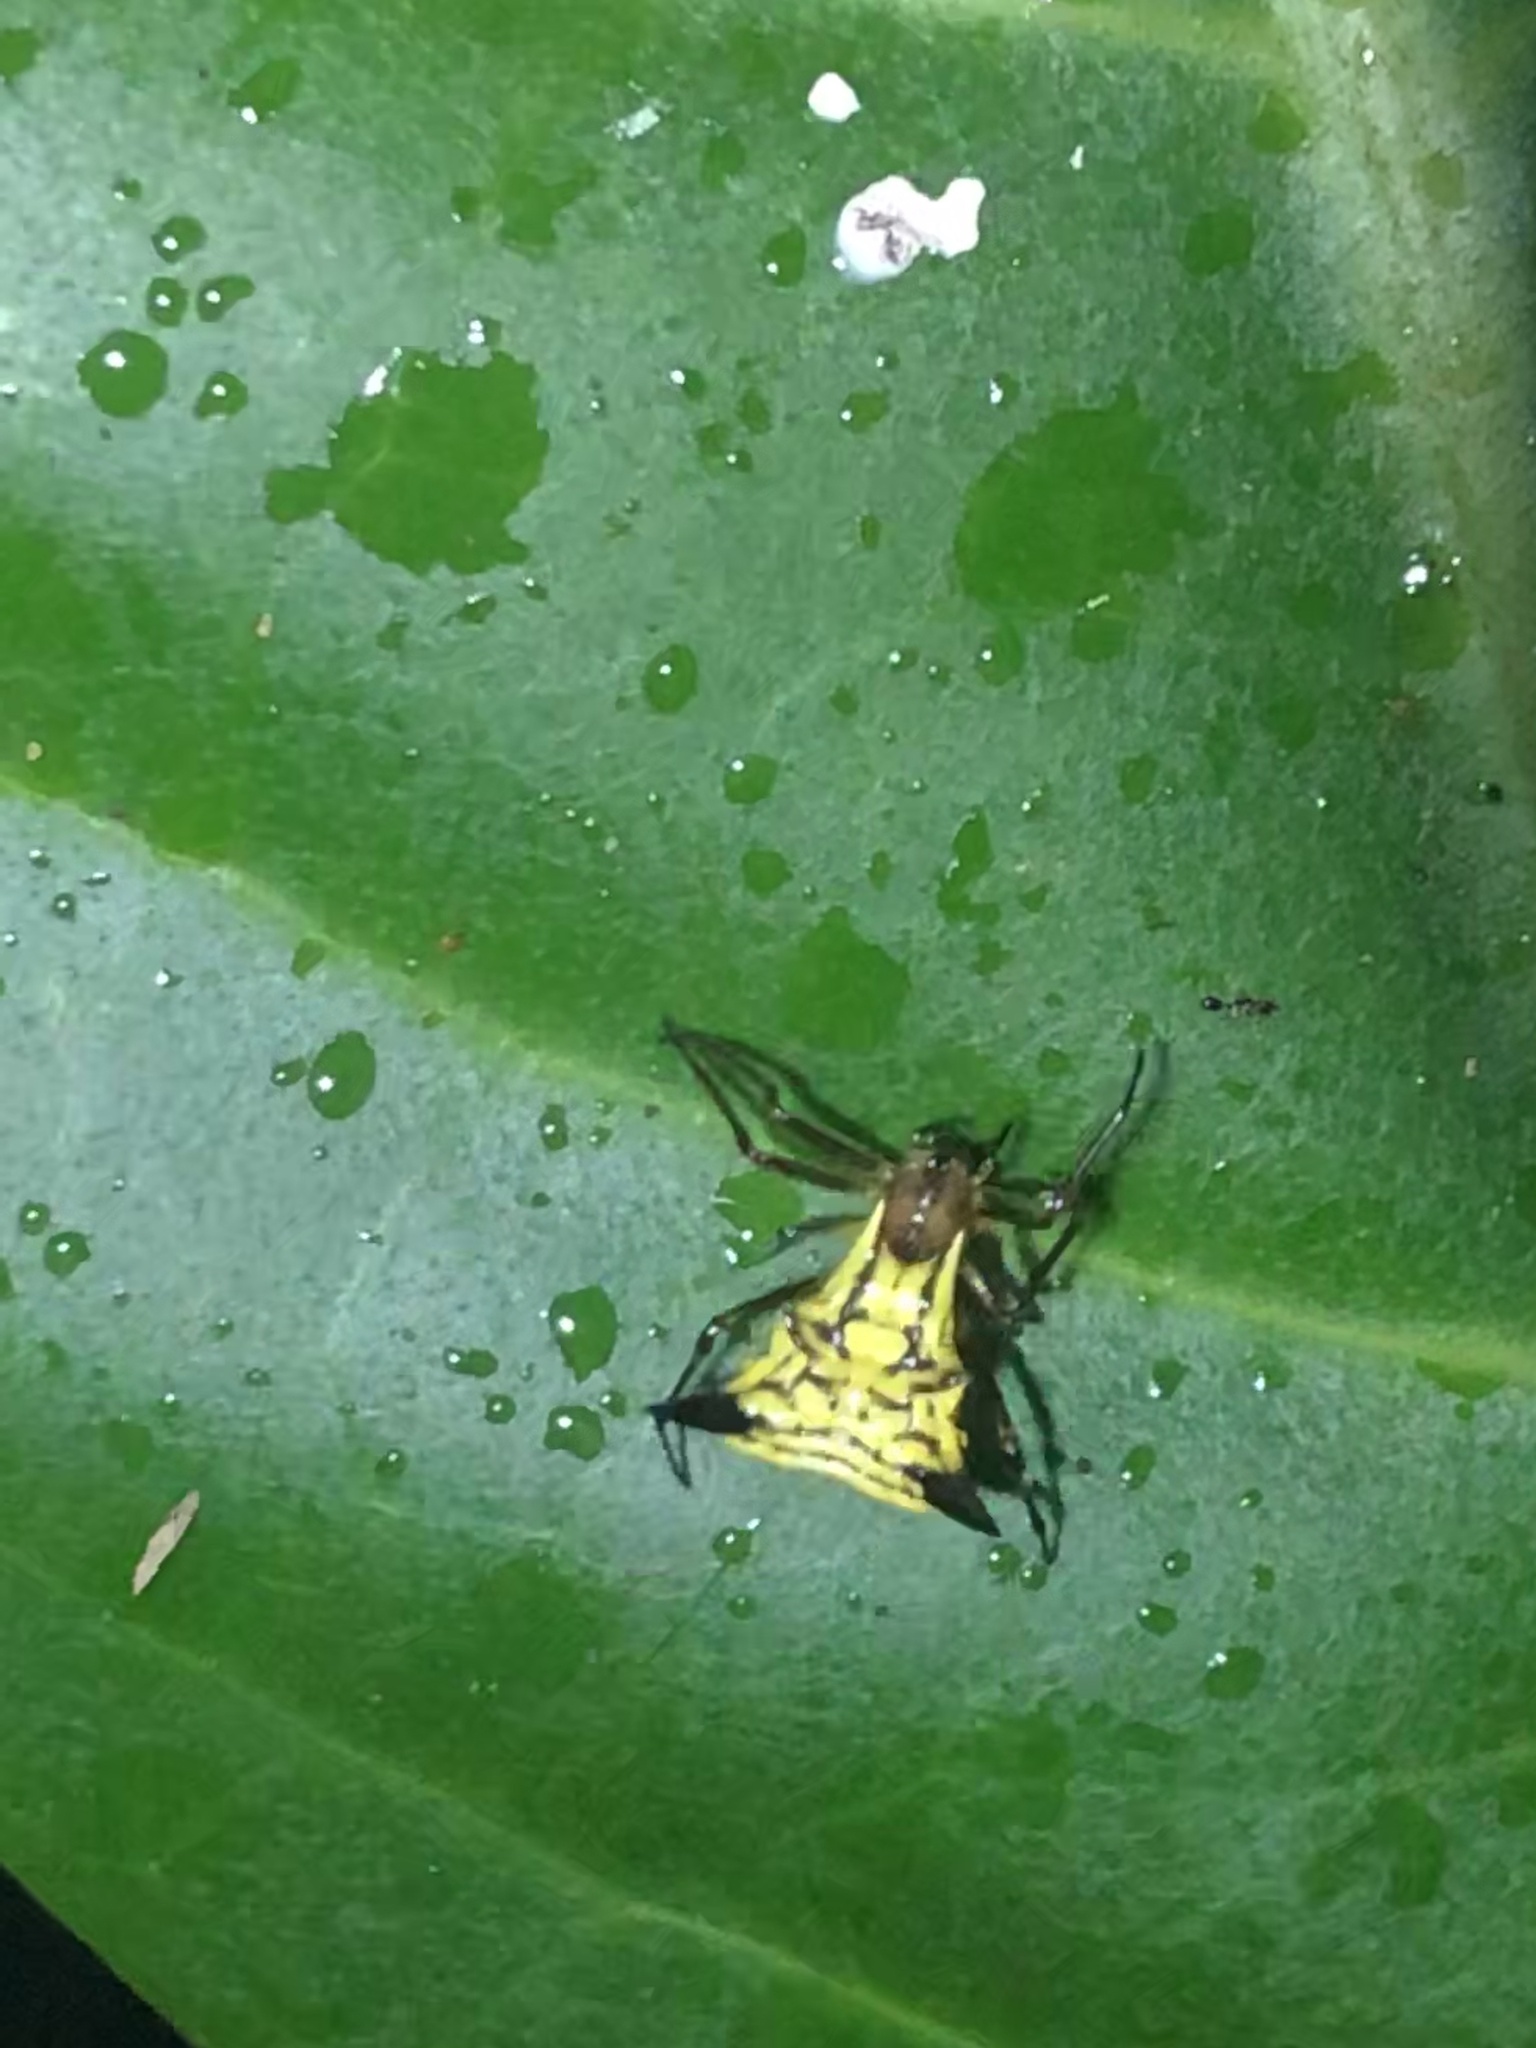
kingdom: Animalia
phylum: Arthropoda
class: Arachnida
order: Araneae
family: Araneidae
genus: Micrathena
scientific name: Micrathena acuta
